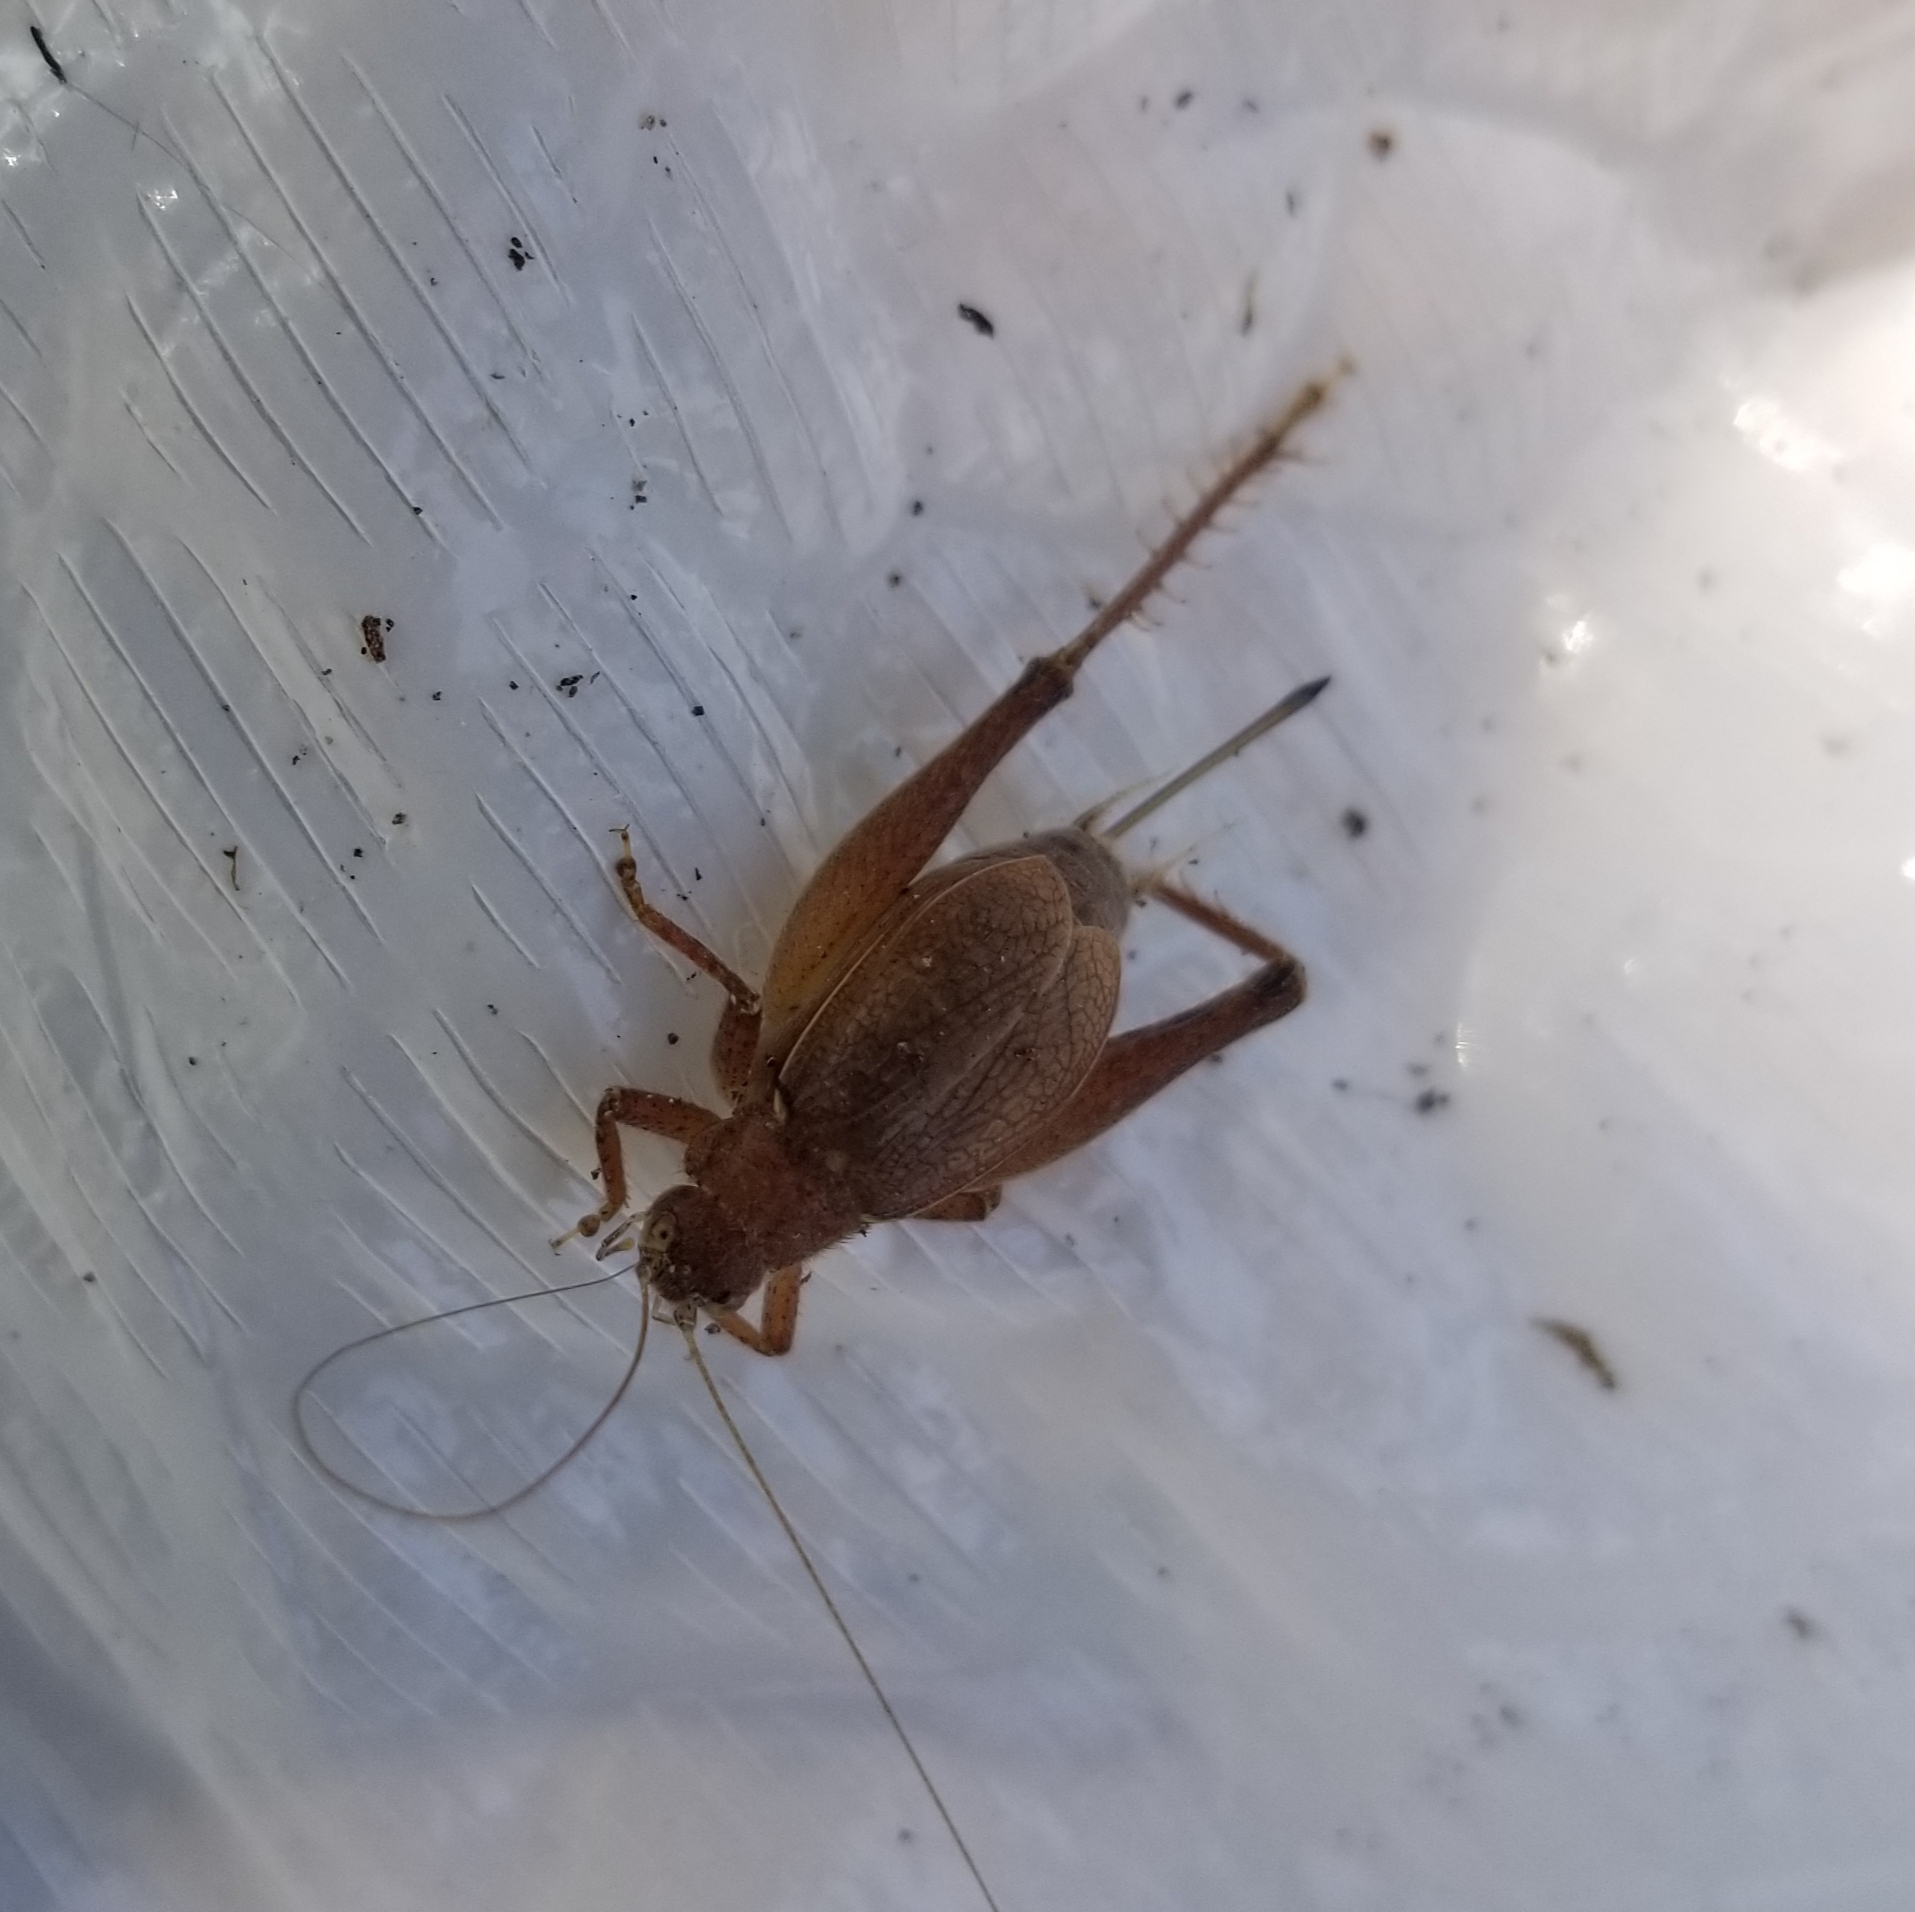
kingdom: Animalia
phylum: Arthropoda
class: Insecta
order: Orthoptera
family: Gryllidae
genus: Hapithus
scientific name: Hapithus agitator
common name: Restless bush cricket
